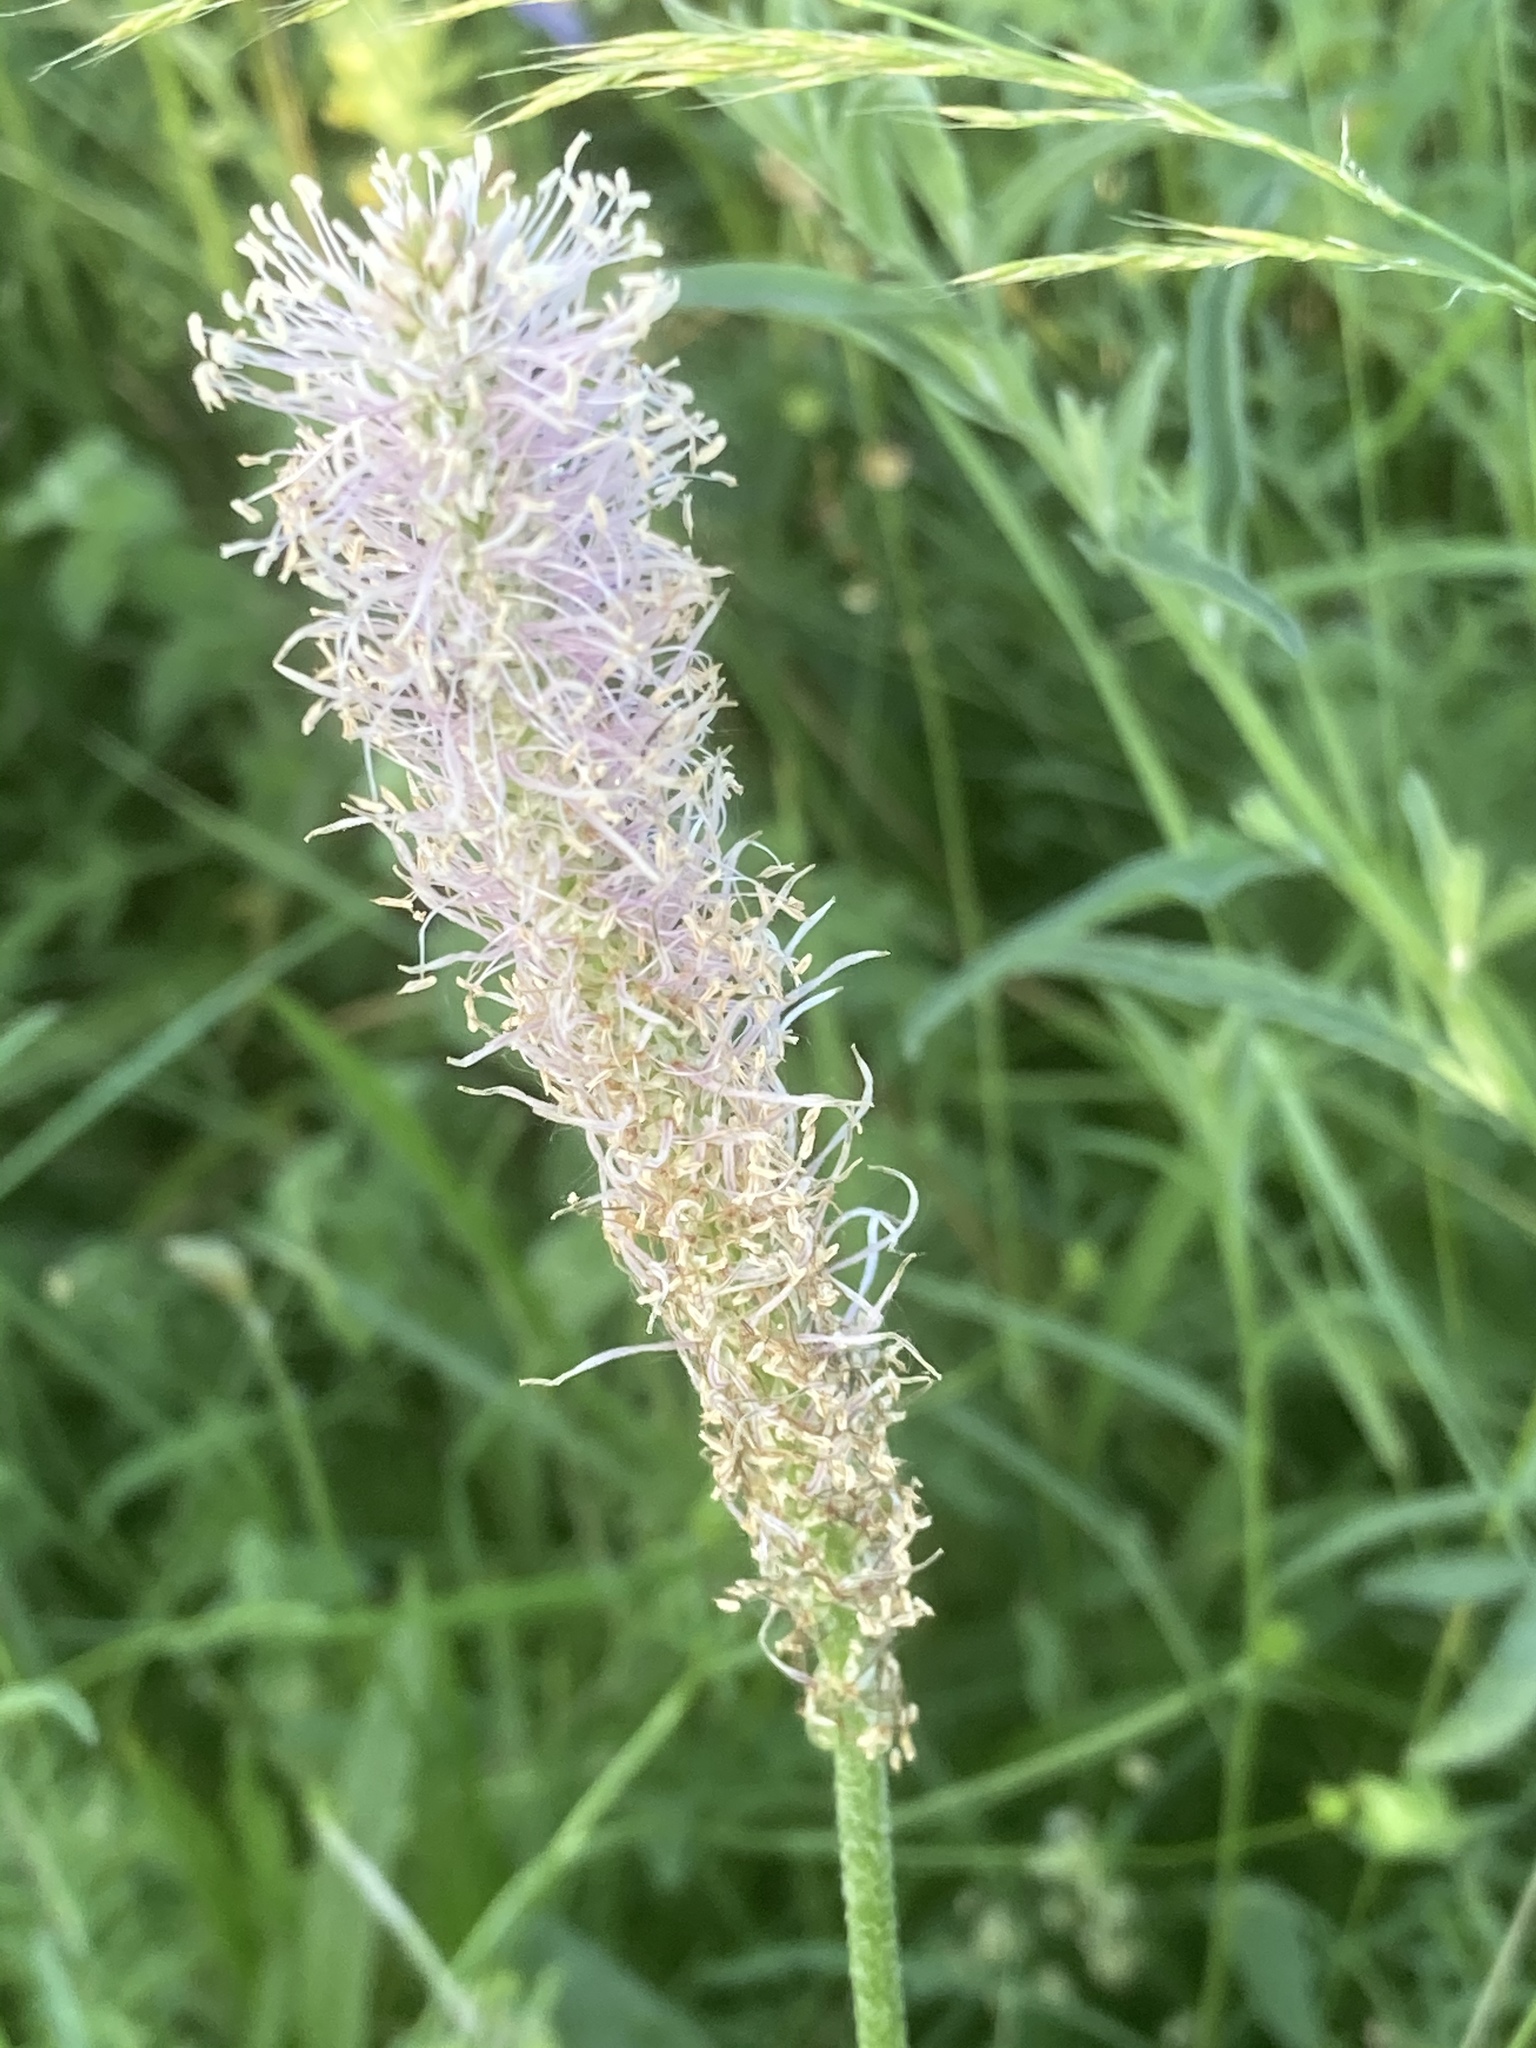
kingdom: Plantae
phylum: Tracheophyta
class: Magnoliopsida
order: Lamiales
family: Plantaginaceae
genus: Plantago
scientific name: Plantago media
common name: Hoary plantain
